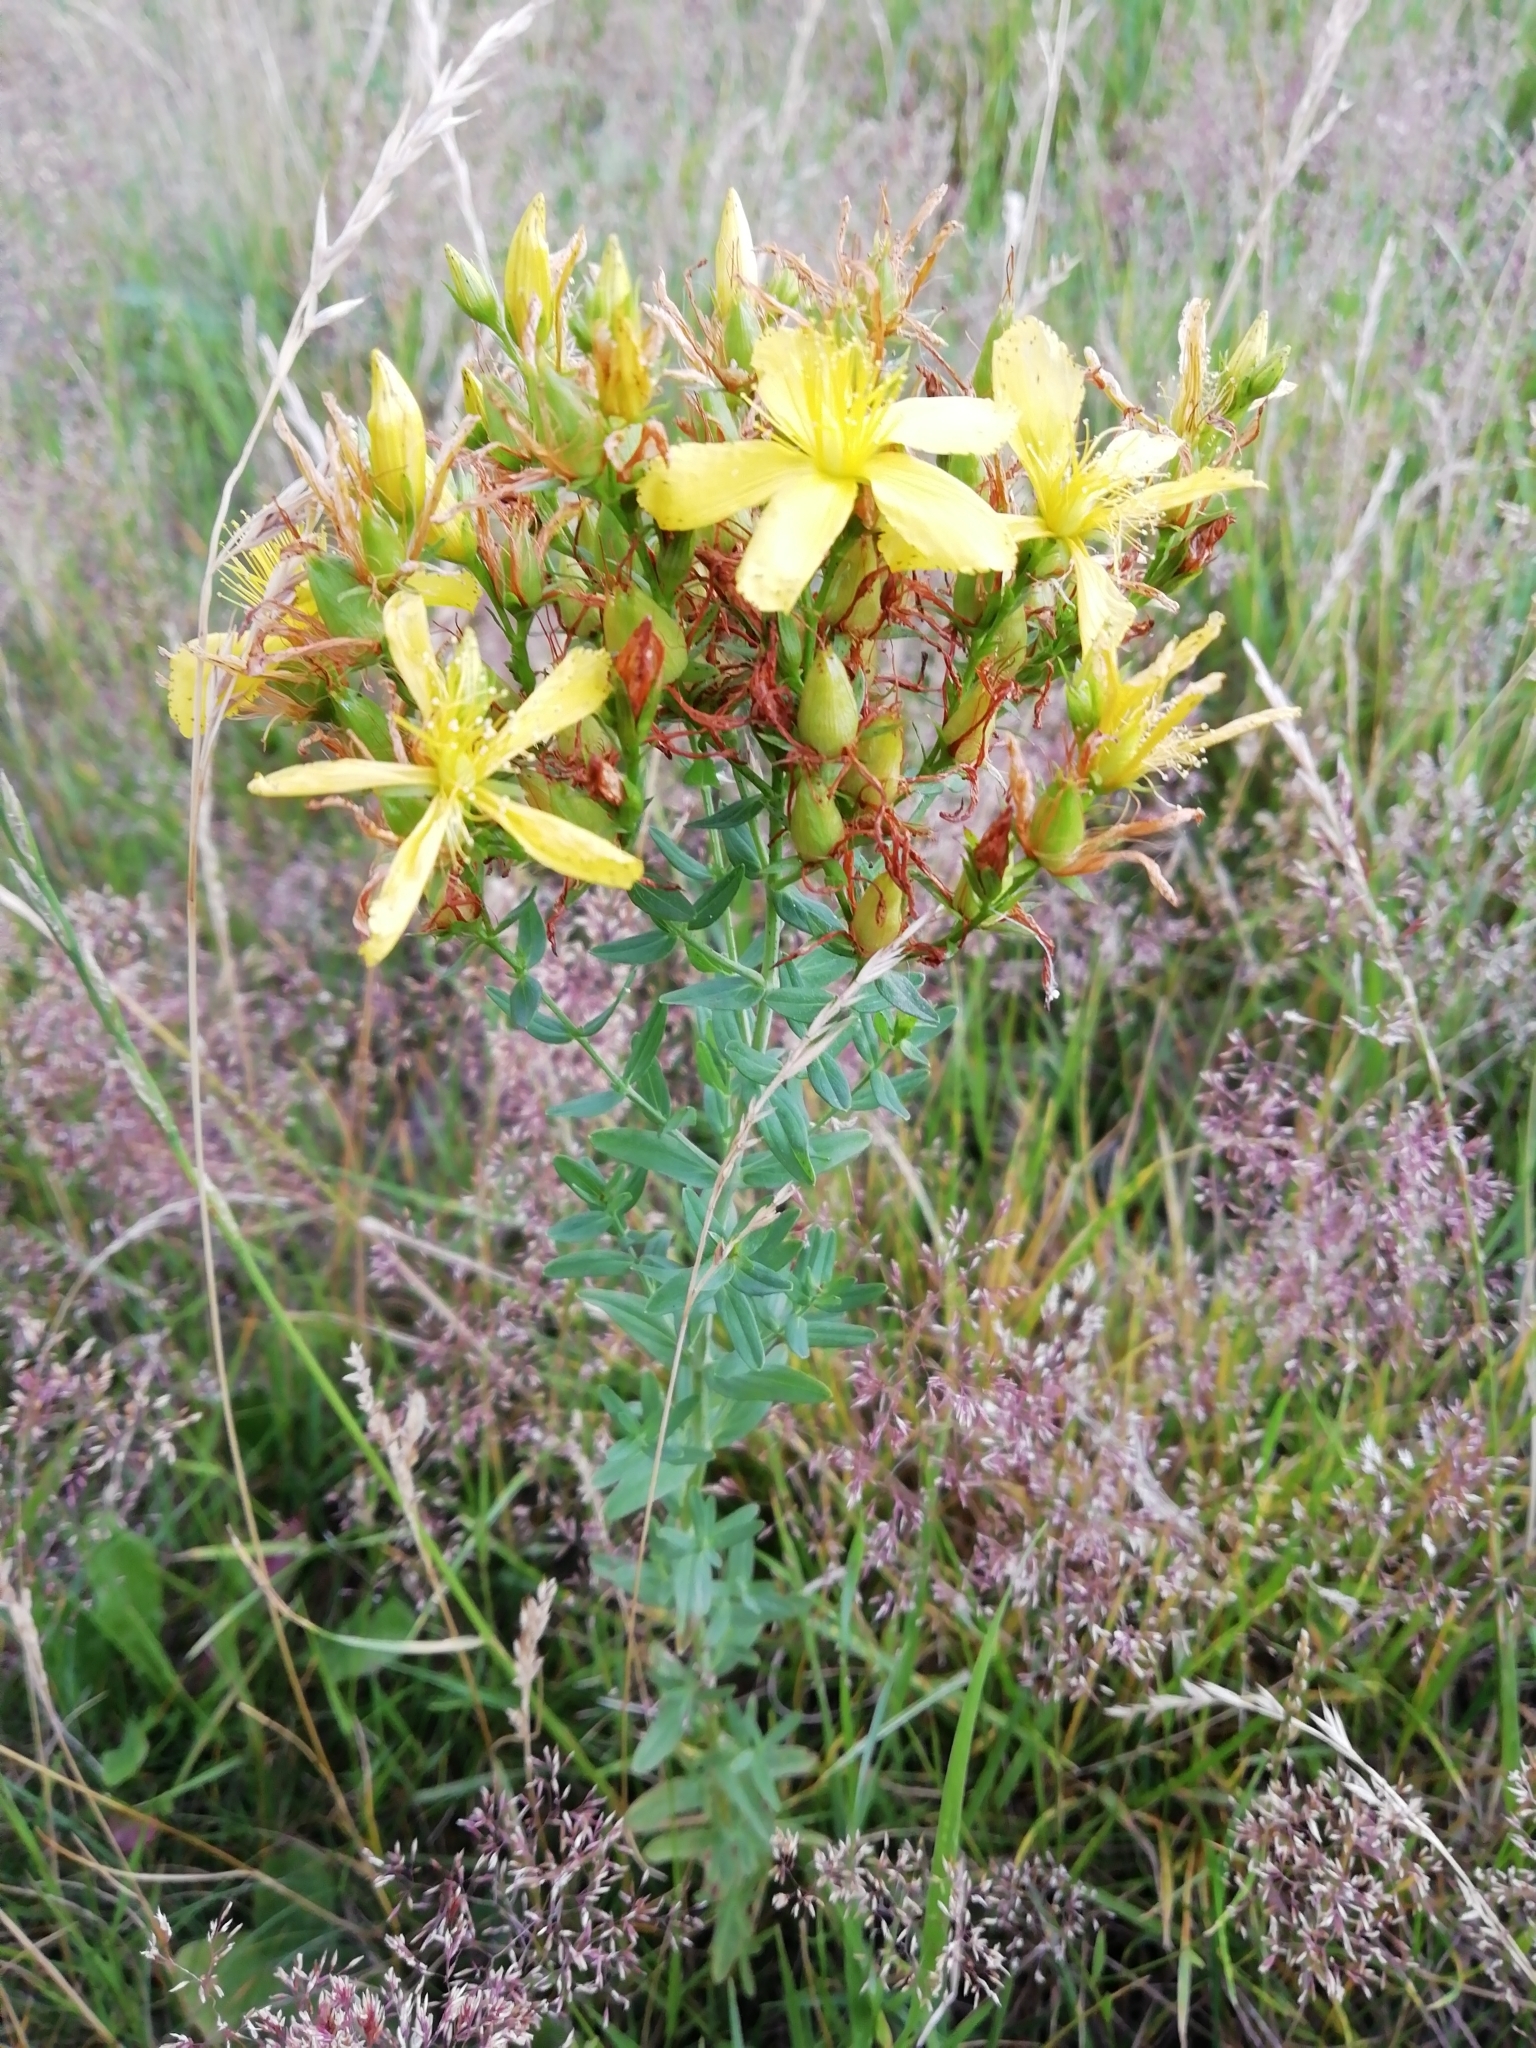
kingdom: Plantae
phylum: Tracheophyta
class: Magnoliopsida
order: Malpighiales
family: Hypericaceae
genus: Hypericum
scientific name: Hypericum perforatum
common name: Common st. johnswort
